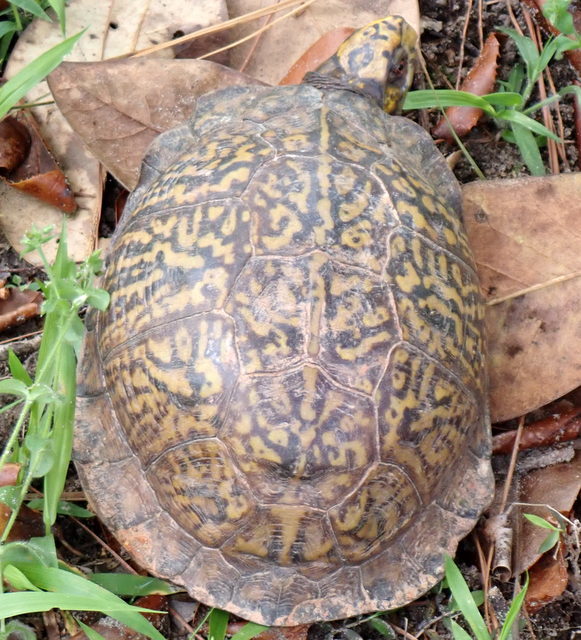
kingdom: Animalia
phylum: Chordata
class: Testudines
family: Emydidae
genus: Terrapene
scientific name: Terrapene carolina
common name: Common box turtle
